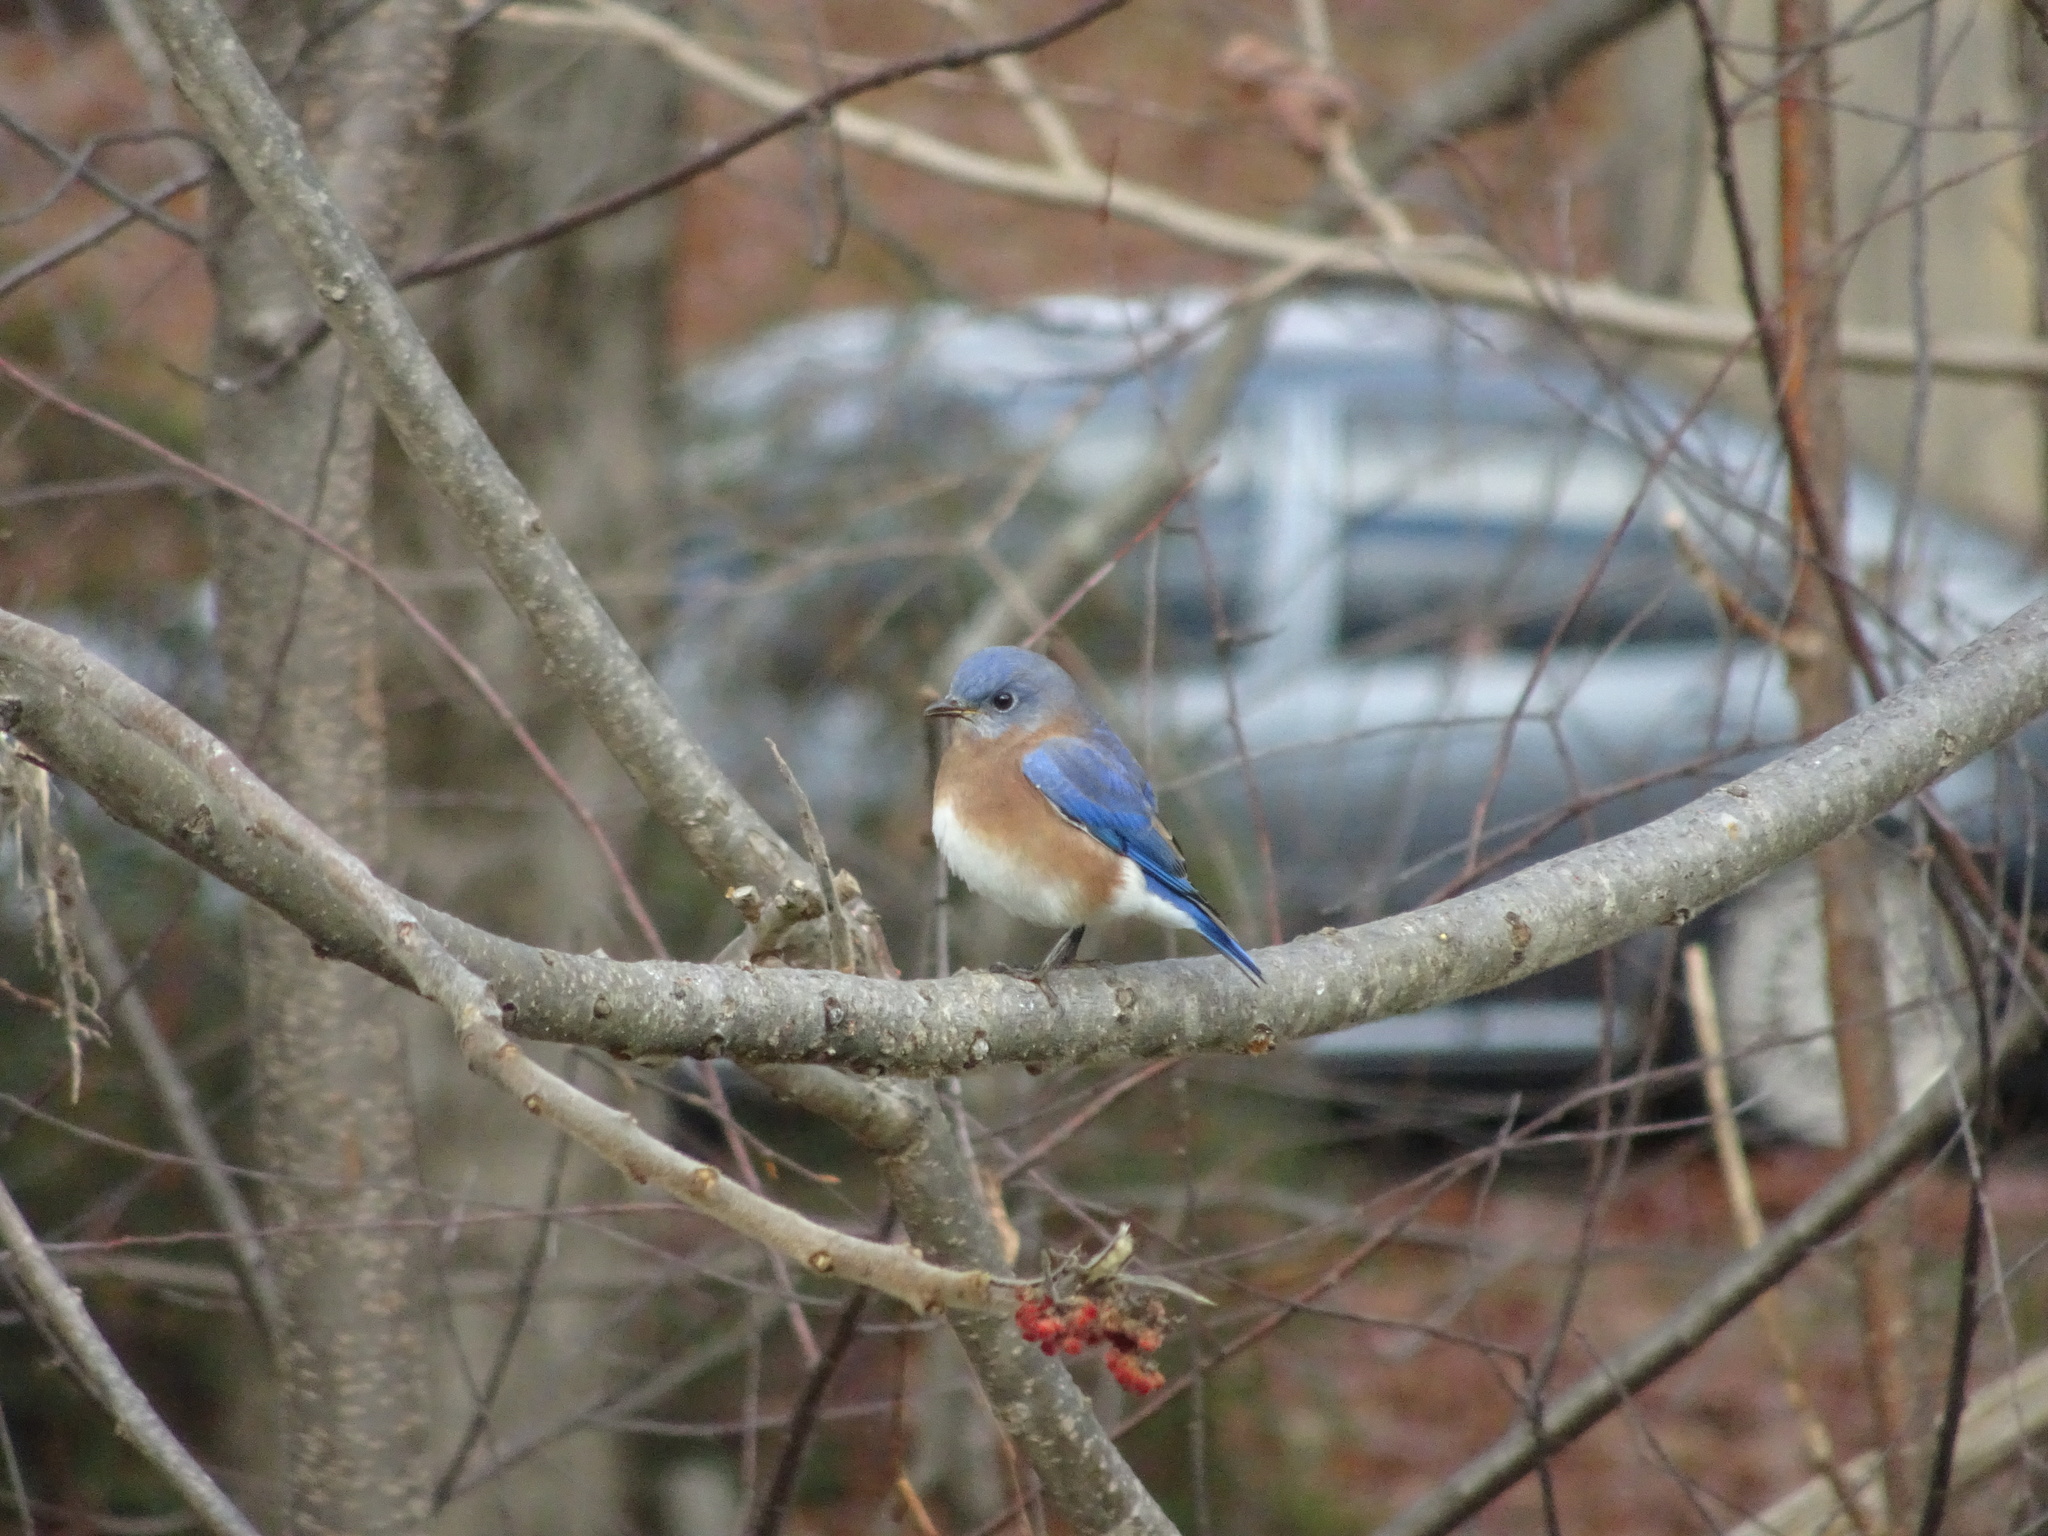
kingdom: Animalia
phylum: Chordata
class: Aves
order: Passeriformes
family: Turdidae
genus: Sialia
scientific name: Sialia sialis
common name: Eastern bluebird
